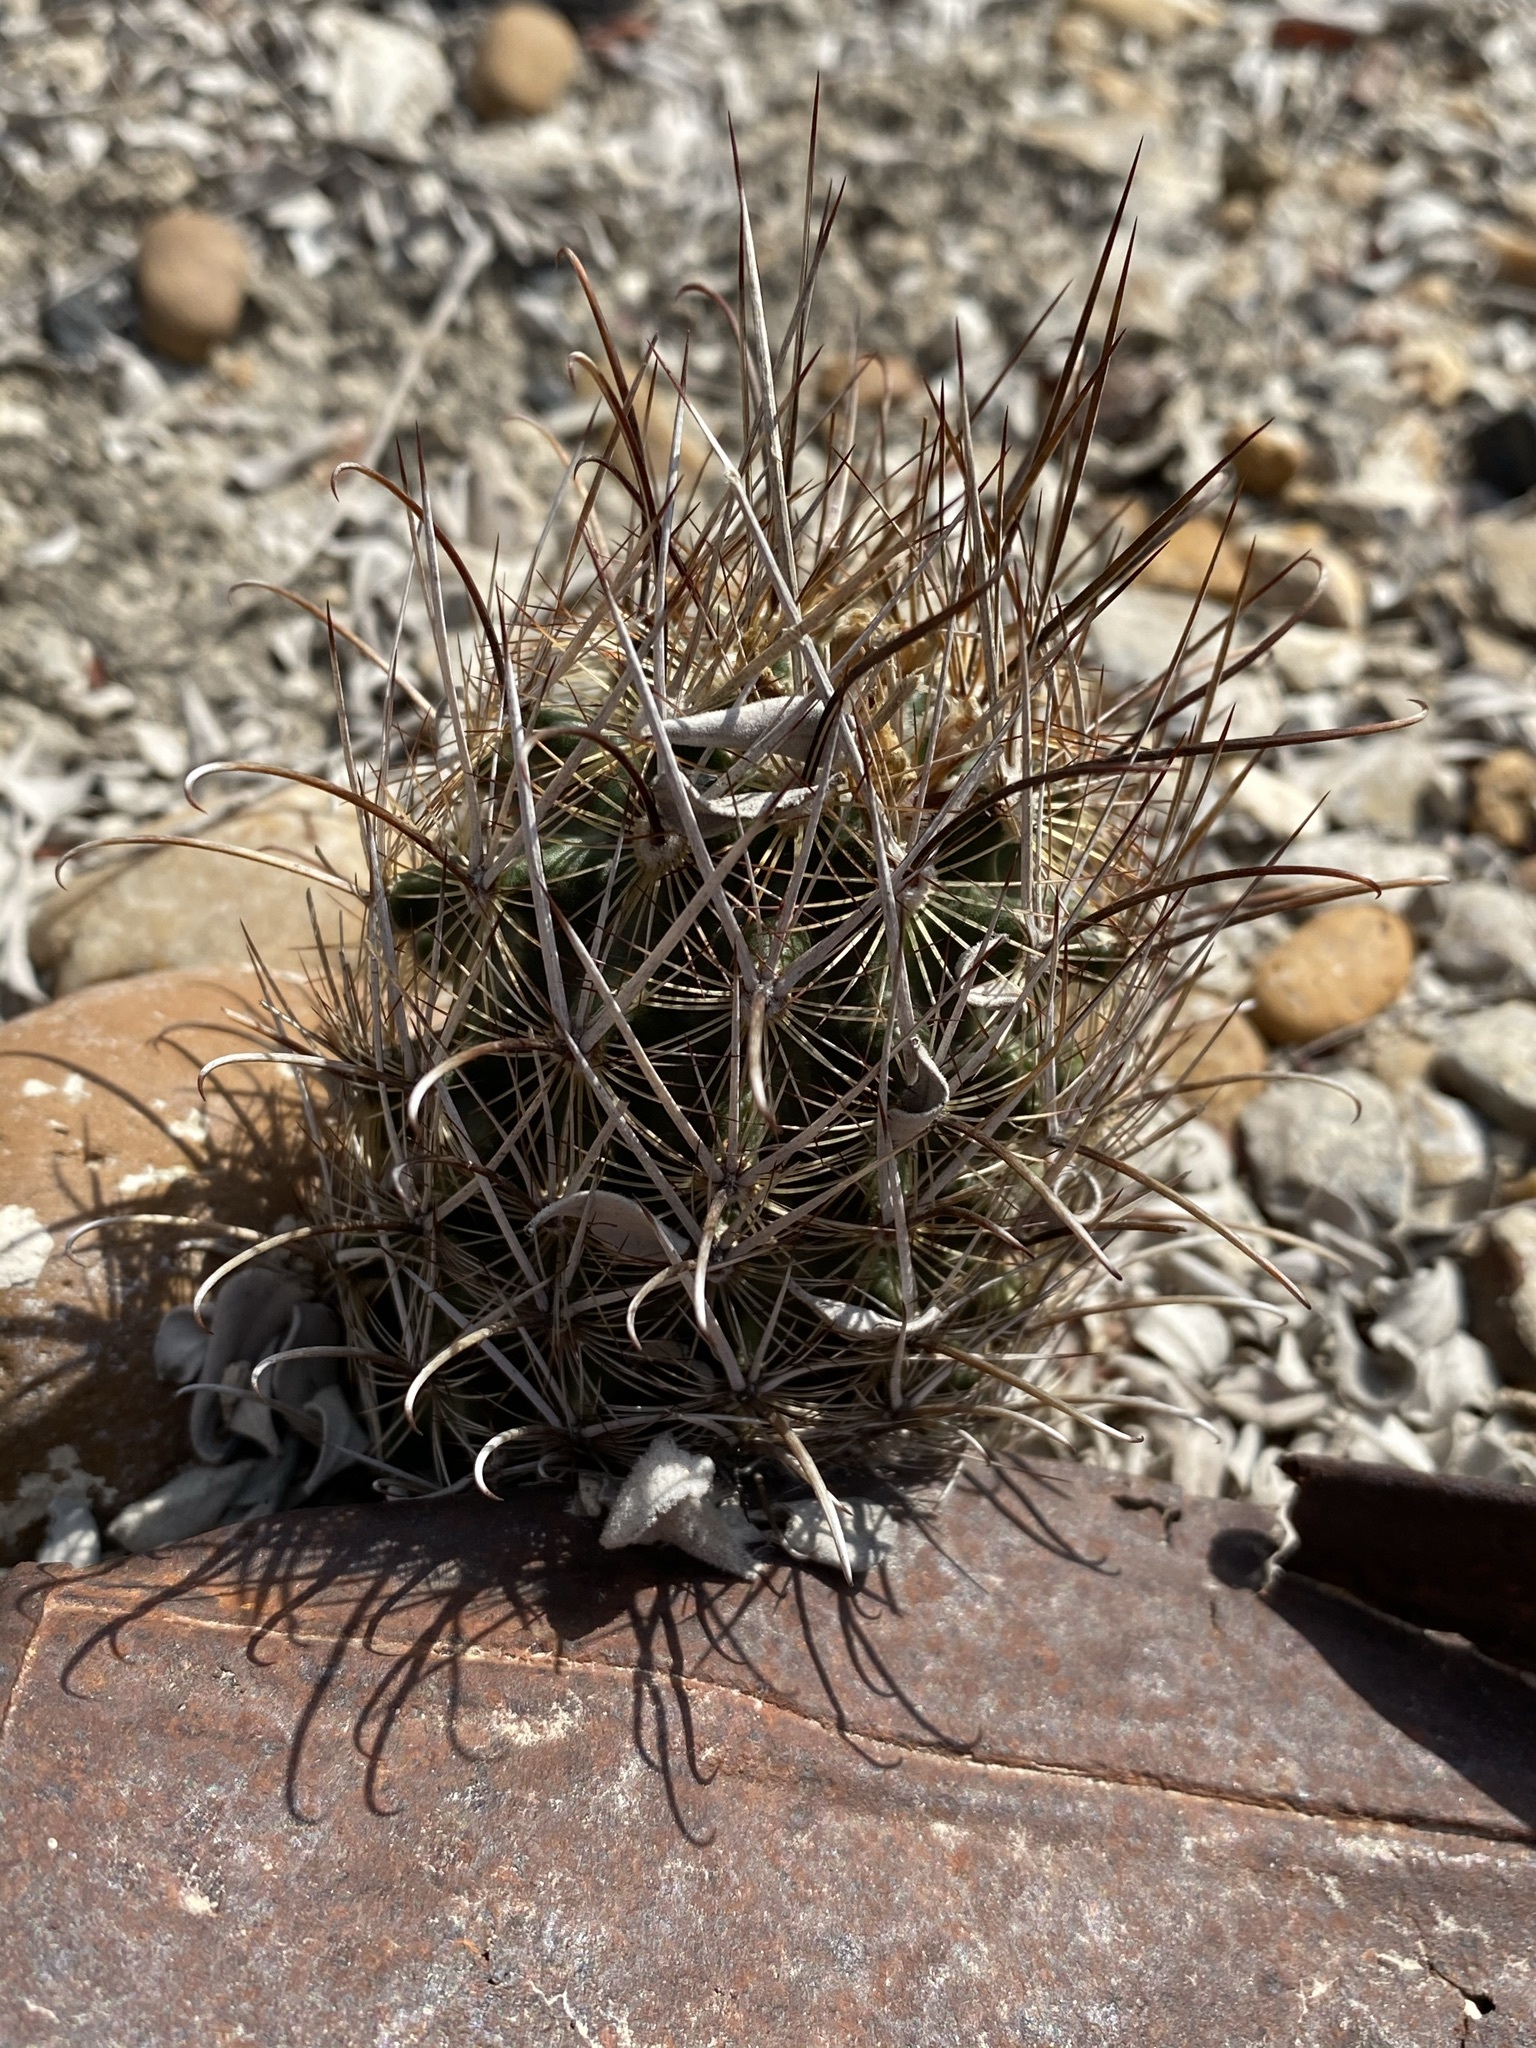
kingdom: Plantae
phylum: Tracheophyta
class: Magnoliopsida
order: Caryophyllales
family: Cactaceae
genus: Sclerocactus
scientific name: Sclerocactus scheerii
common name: Scheer's fish-hook cactus
